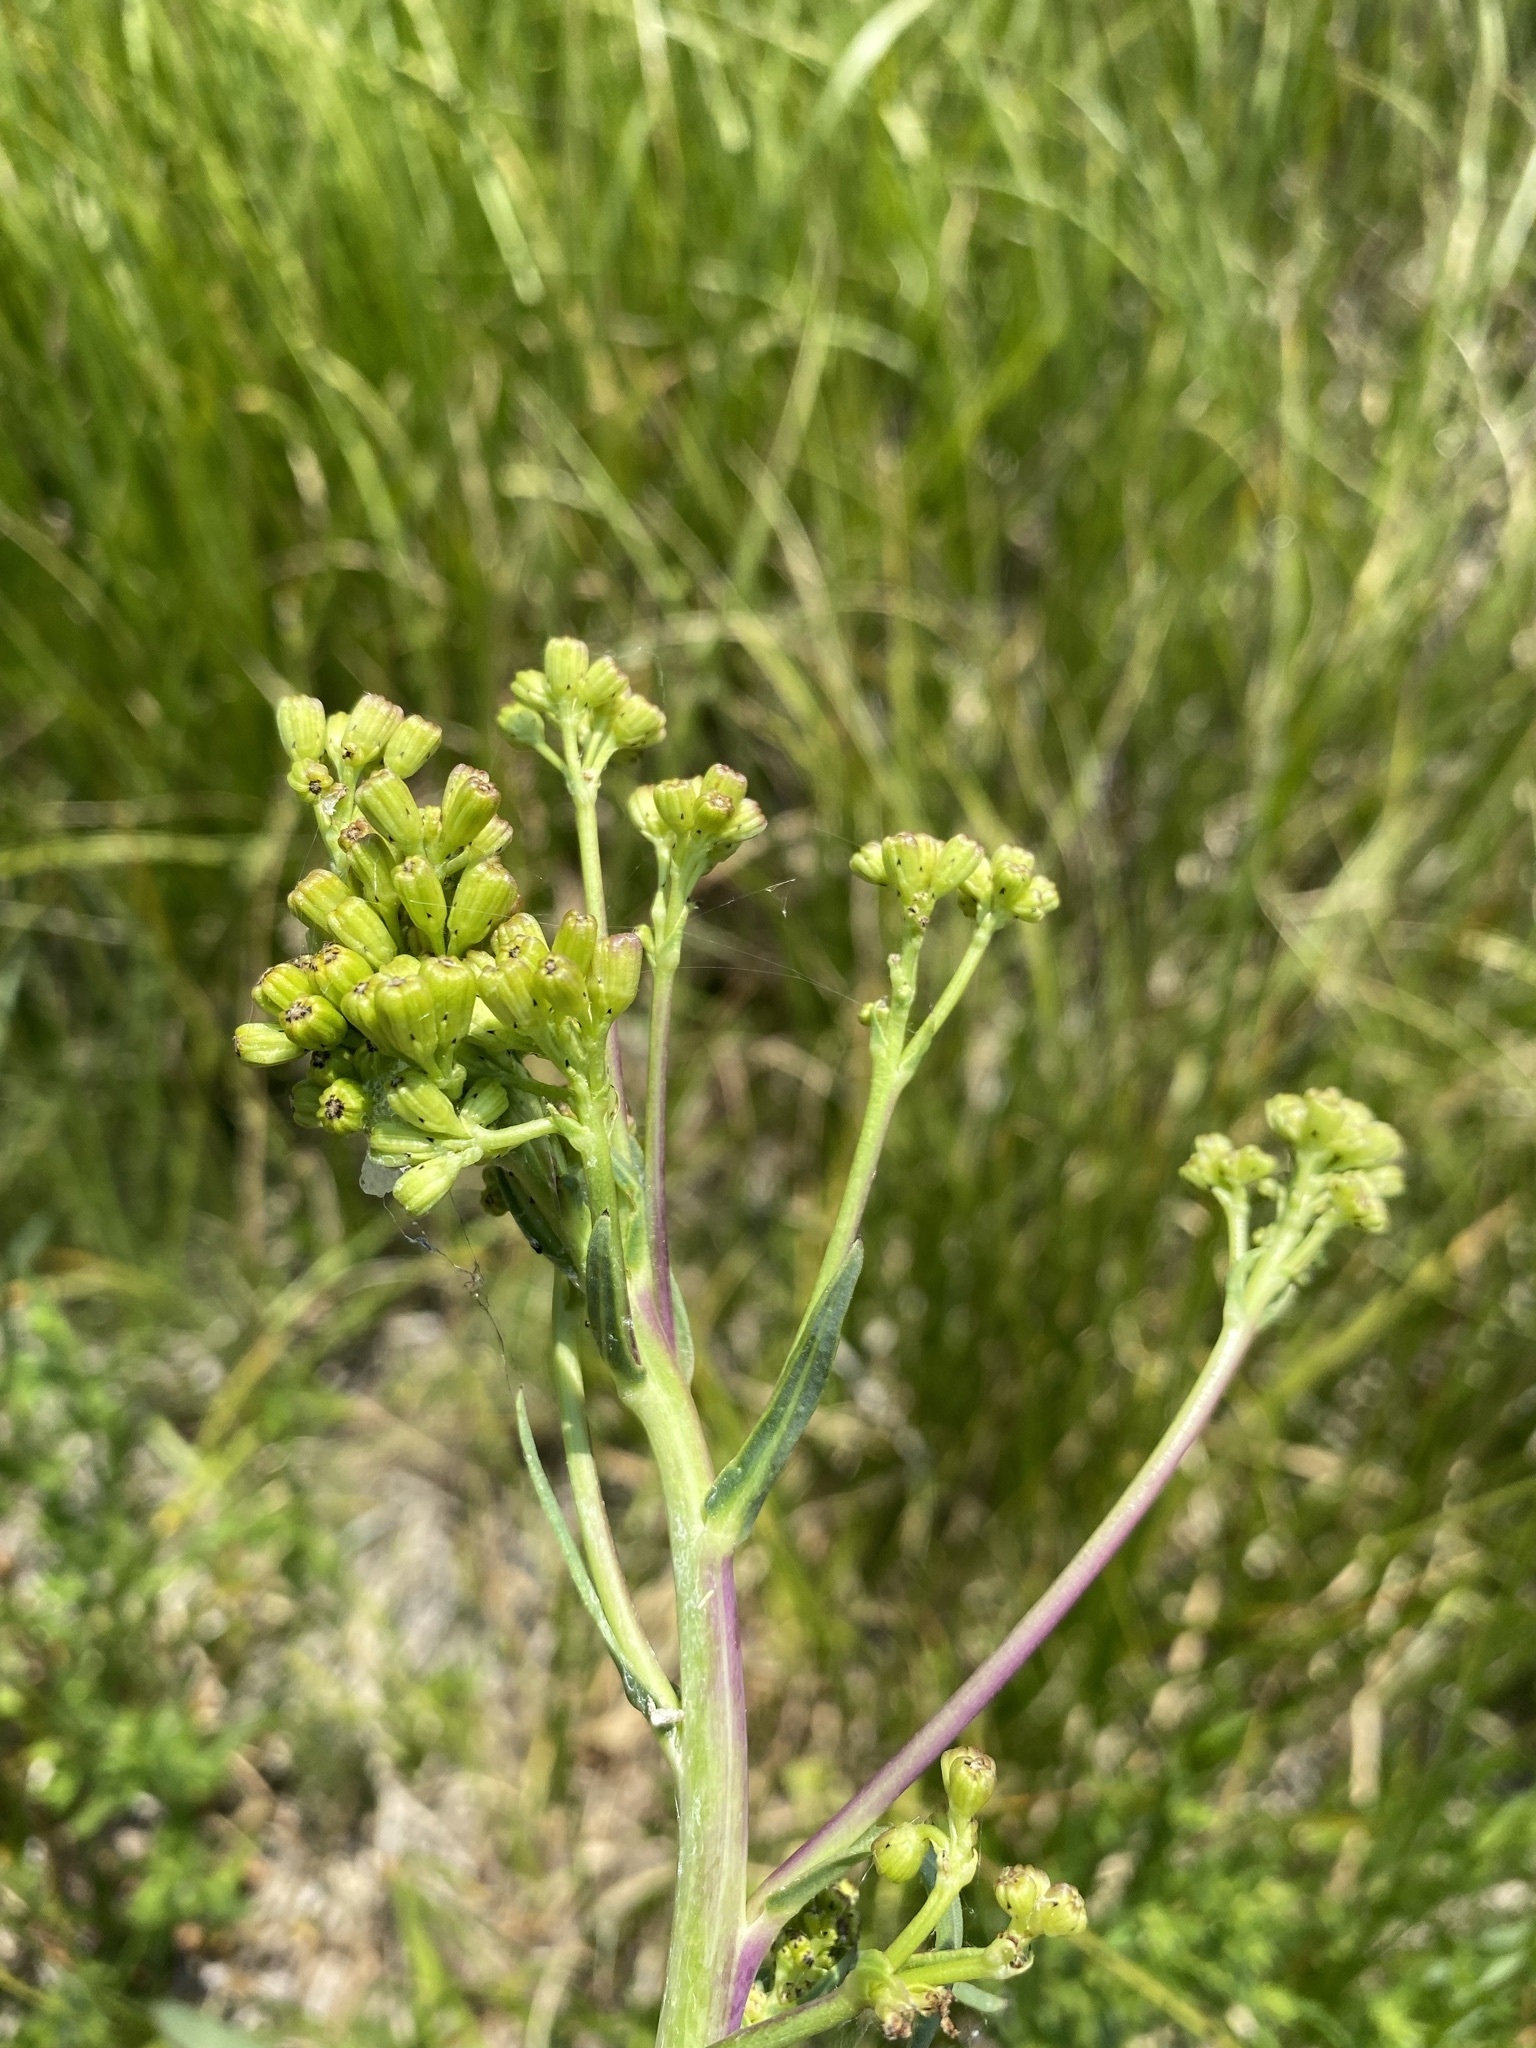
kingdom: Plantae
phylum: Tracheophyta
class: Magnoliopsida
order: Asterales
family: Asteraceae
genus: Senecio
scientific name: Senecio hydrophilus
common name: Water ragwort
